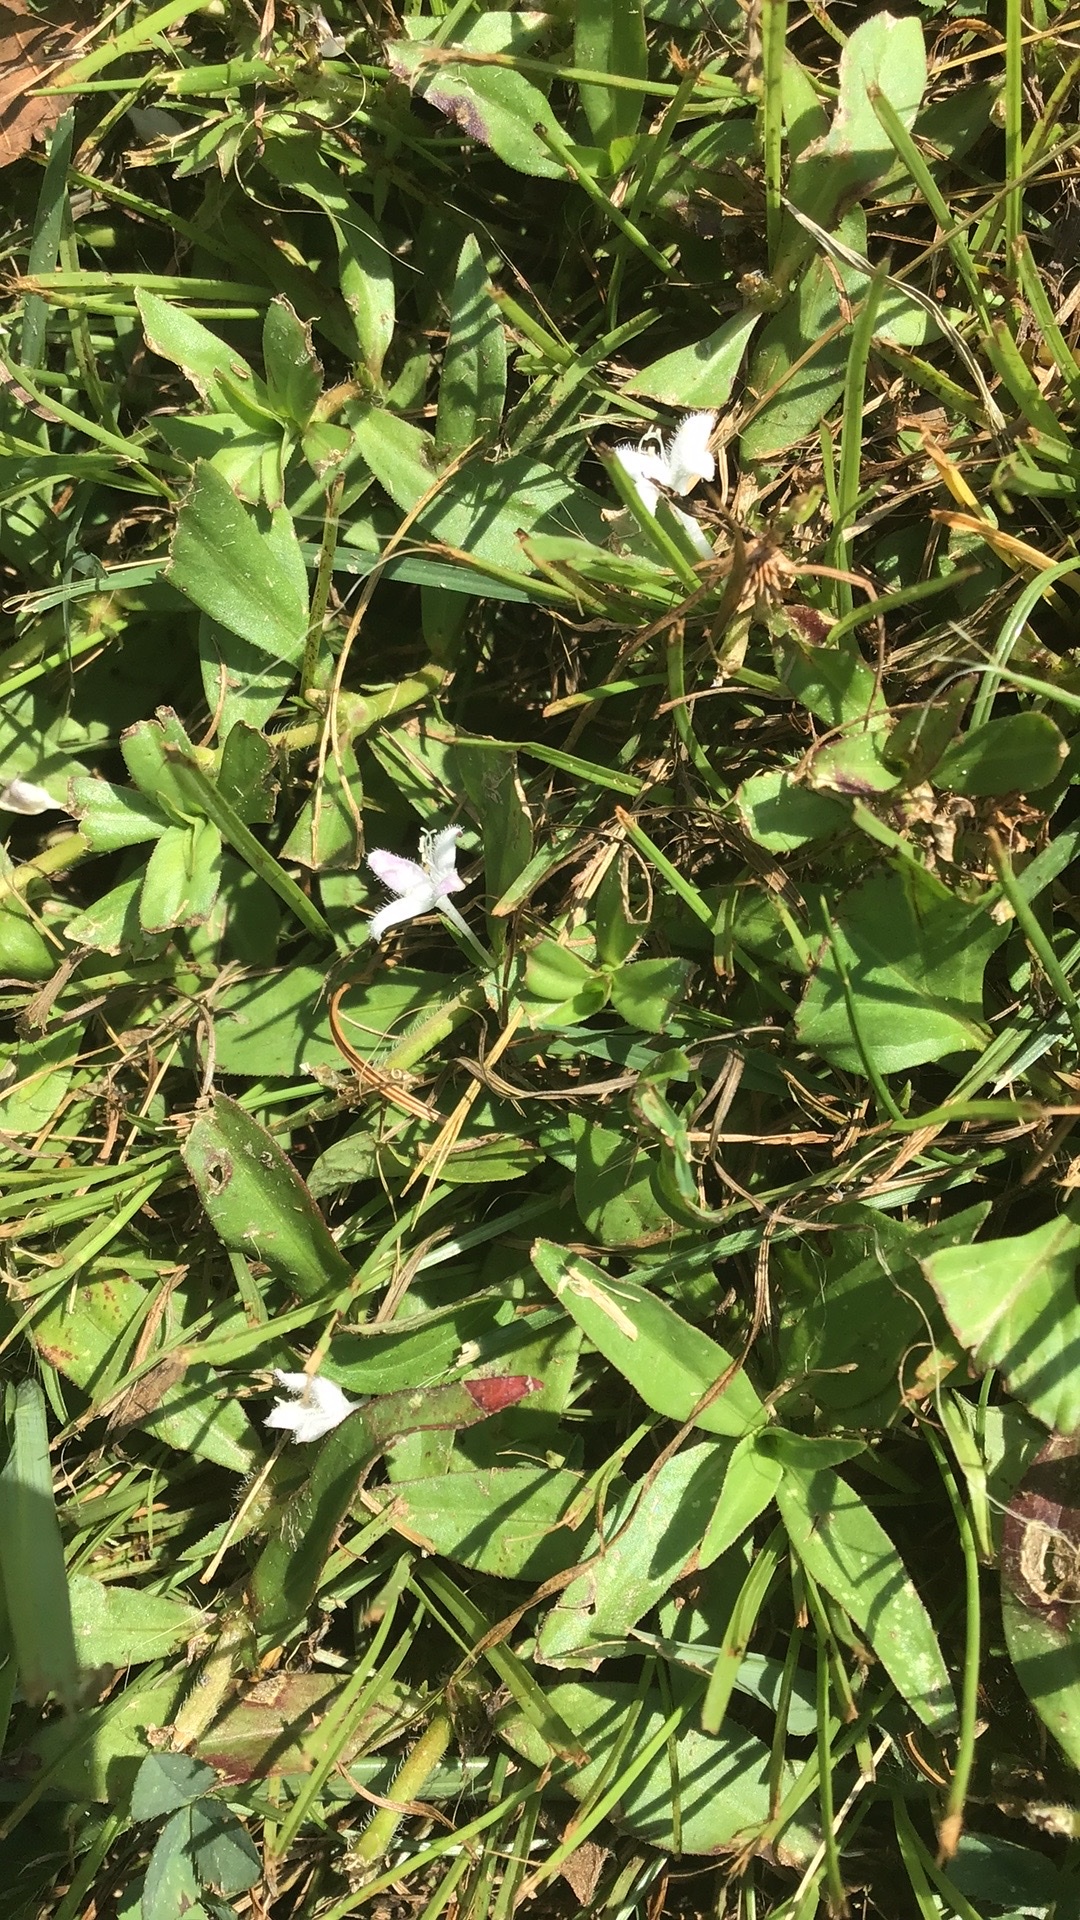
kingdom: Plantae
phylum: Tracheophyta
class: Magnoliopsida
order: Gentianales
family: Rubiaceae
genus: Diodia
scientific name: Diodia virginiana
